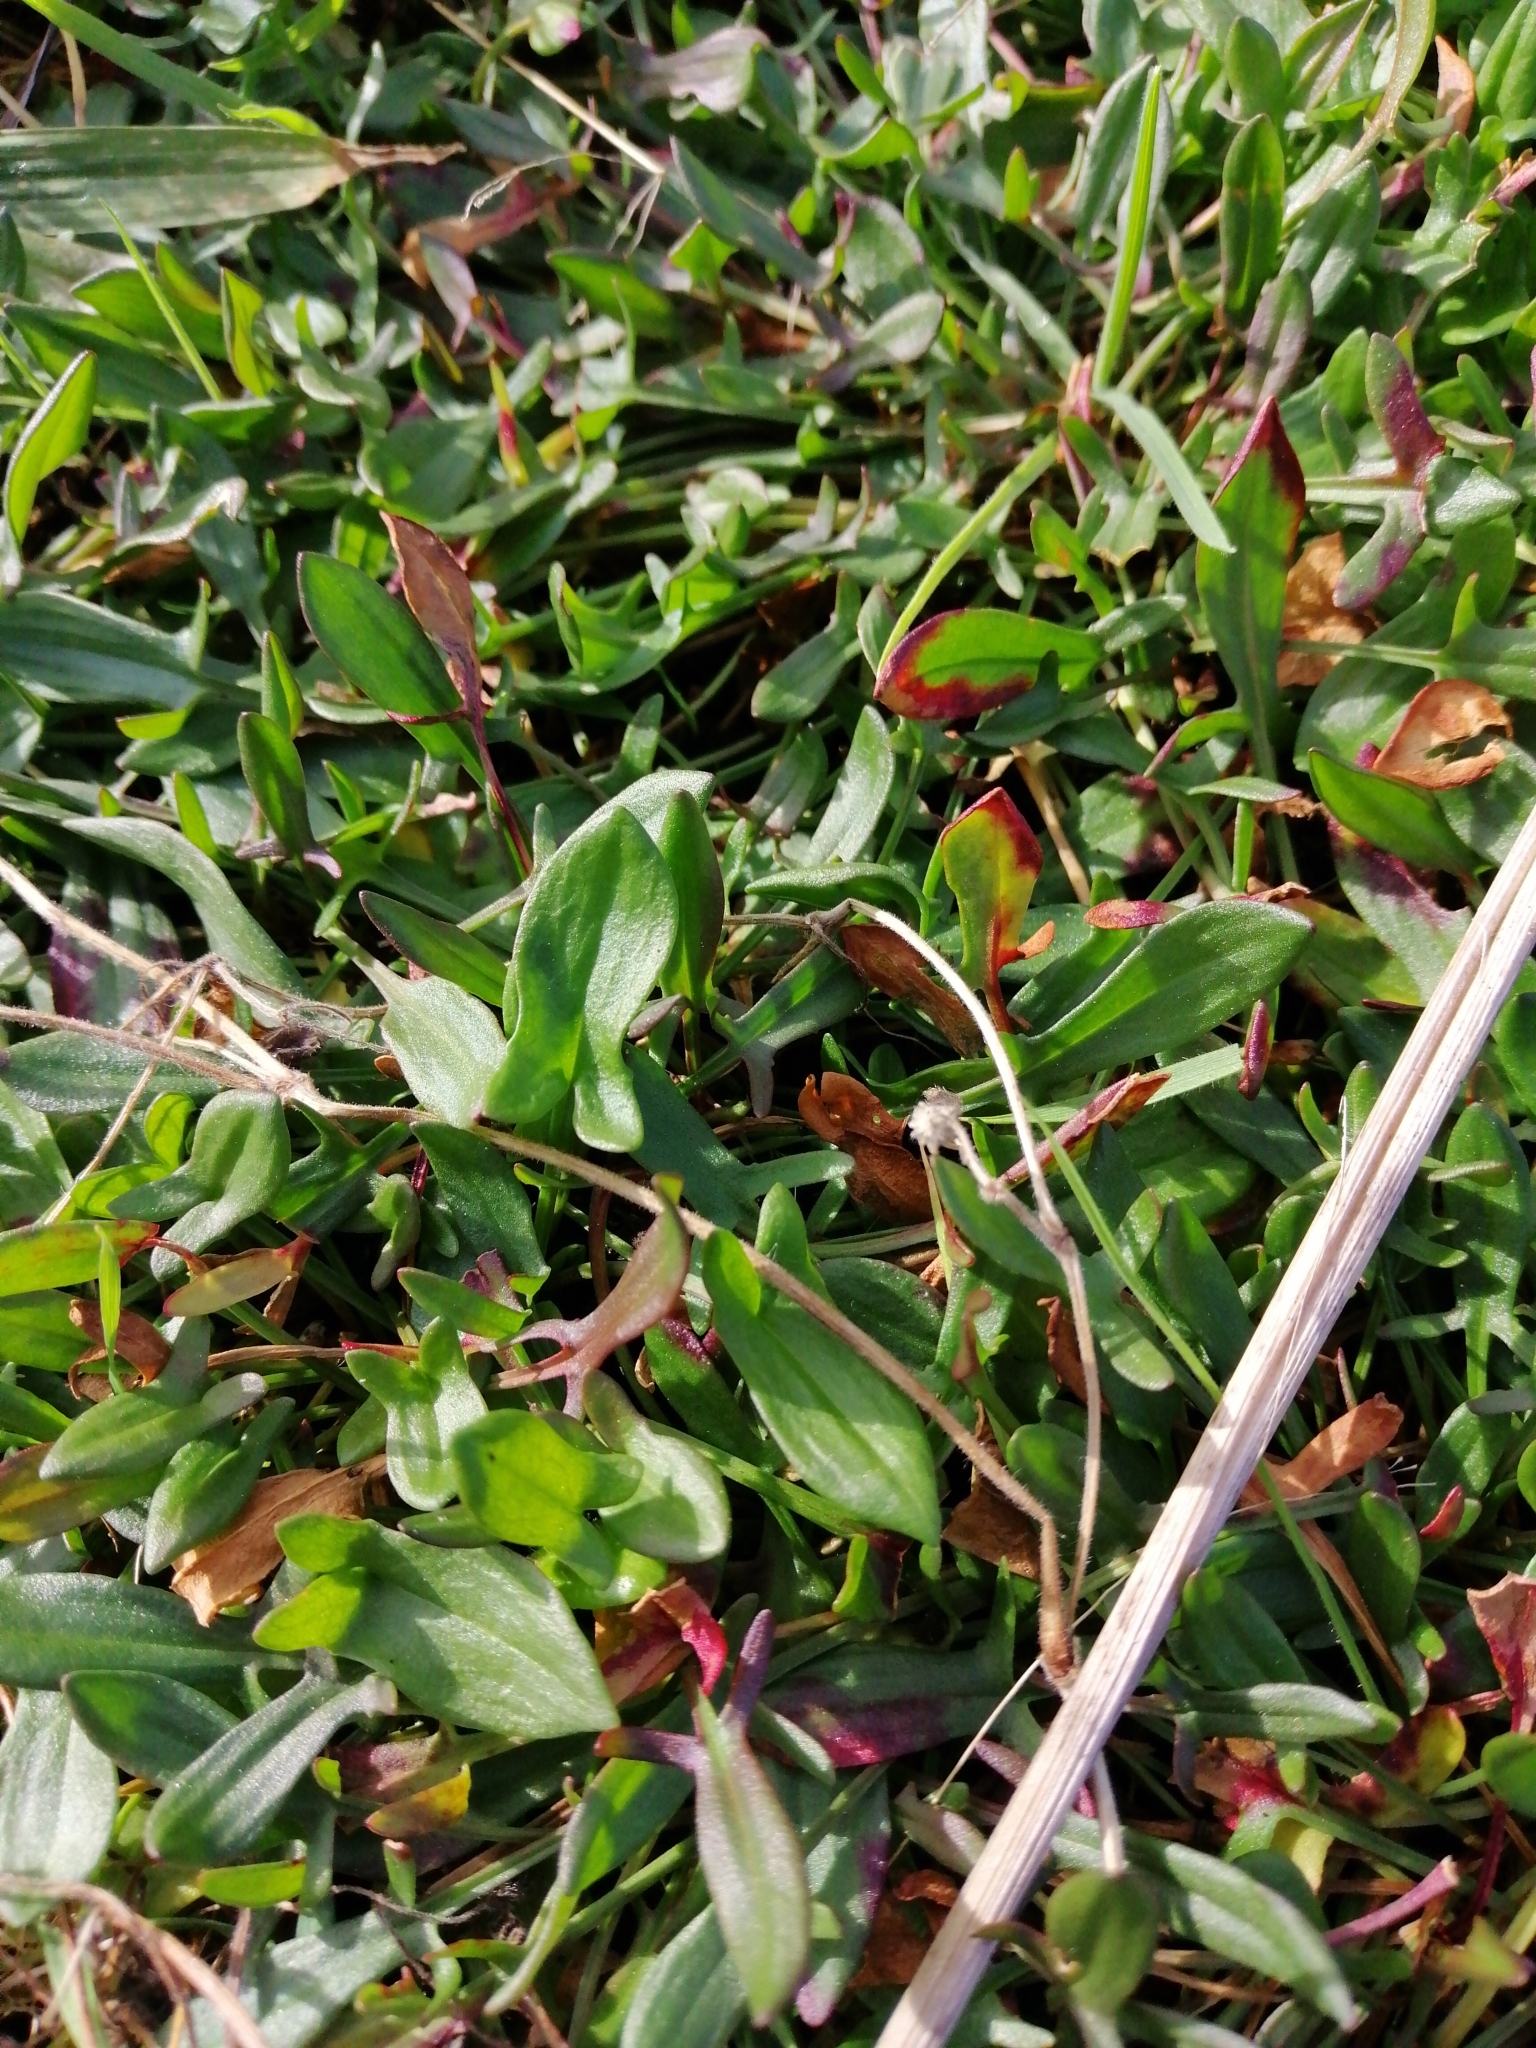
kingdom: Plantae
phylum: Tracheophyta
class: Magnoliopsida
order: Caryophyllales
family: Polygonaceae
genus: Rumex
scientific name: Rumex acetosella
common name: Common sheep sorrel
